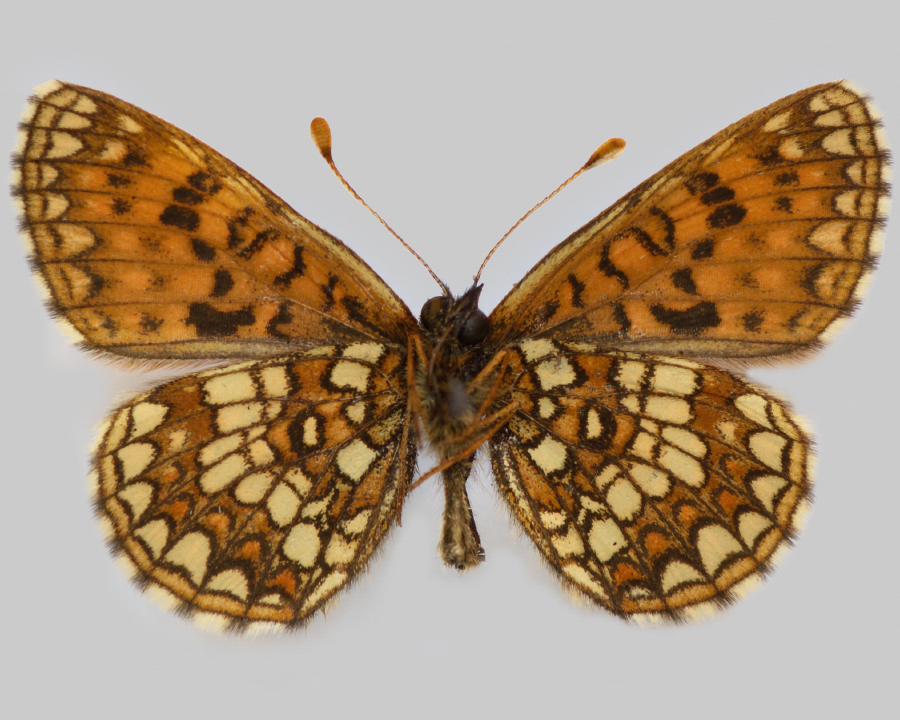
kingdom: Animalia
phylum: Arthropoda
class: Insecta
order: Lepidoptera
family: Nymphalidae
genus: Mellicta
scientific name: Mellicta britomartis
